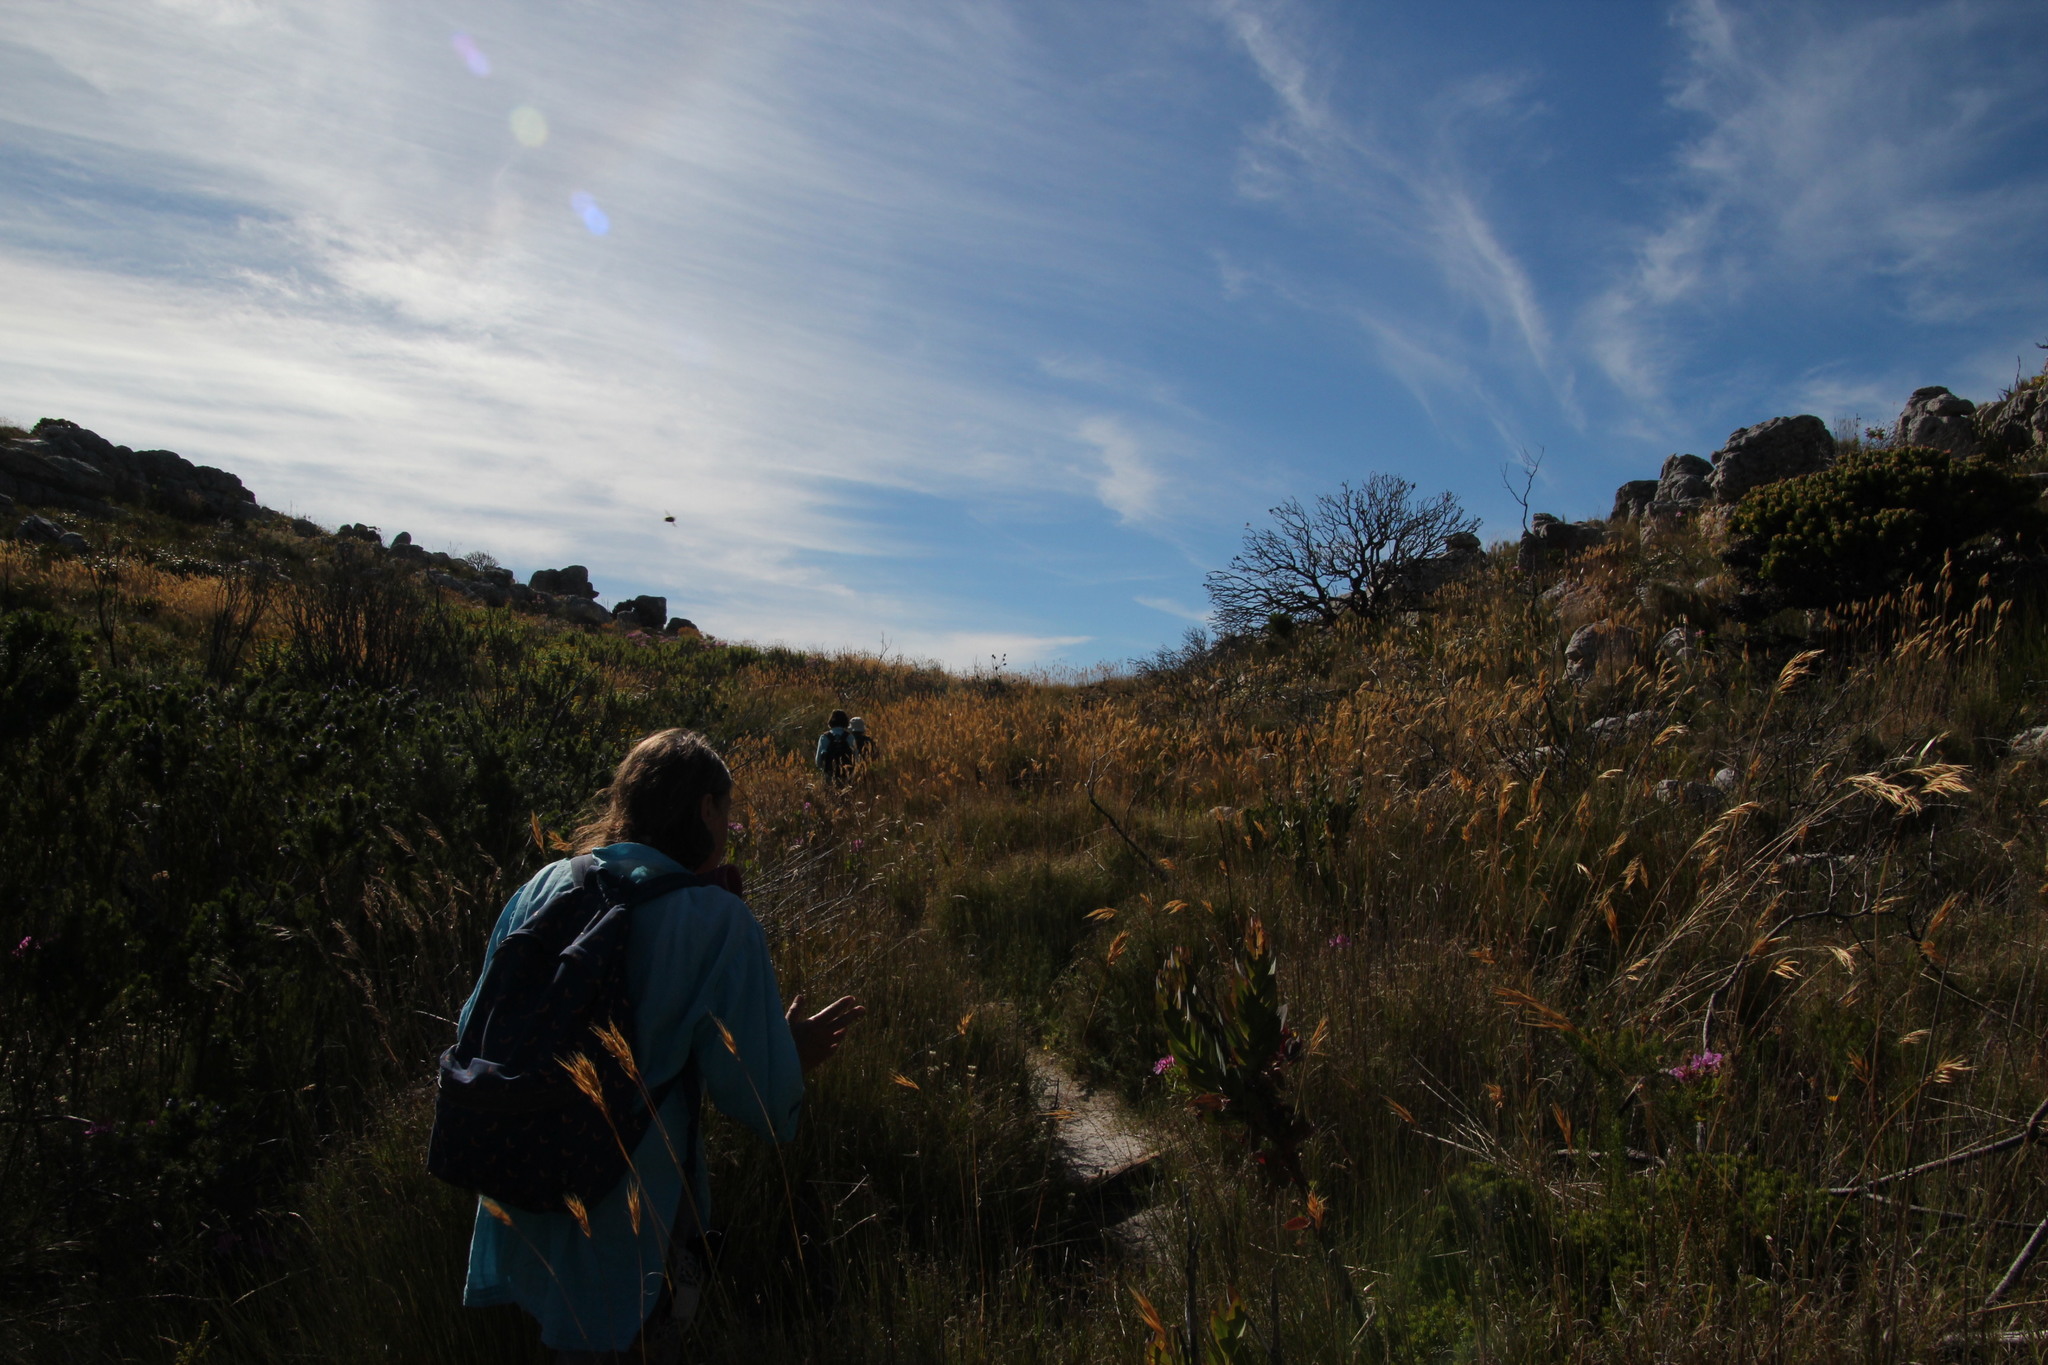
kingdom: Plantae
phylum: Tracheophyta
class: Liliopsida
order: Poales
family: Poaceae
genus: Pseudopentameris
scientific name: Pseudopentameris macrantha
